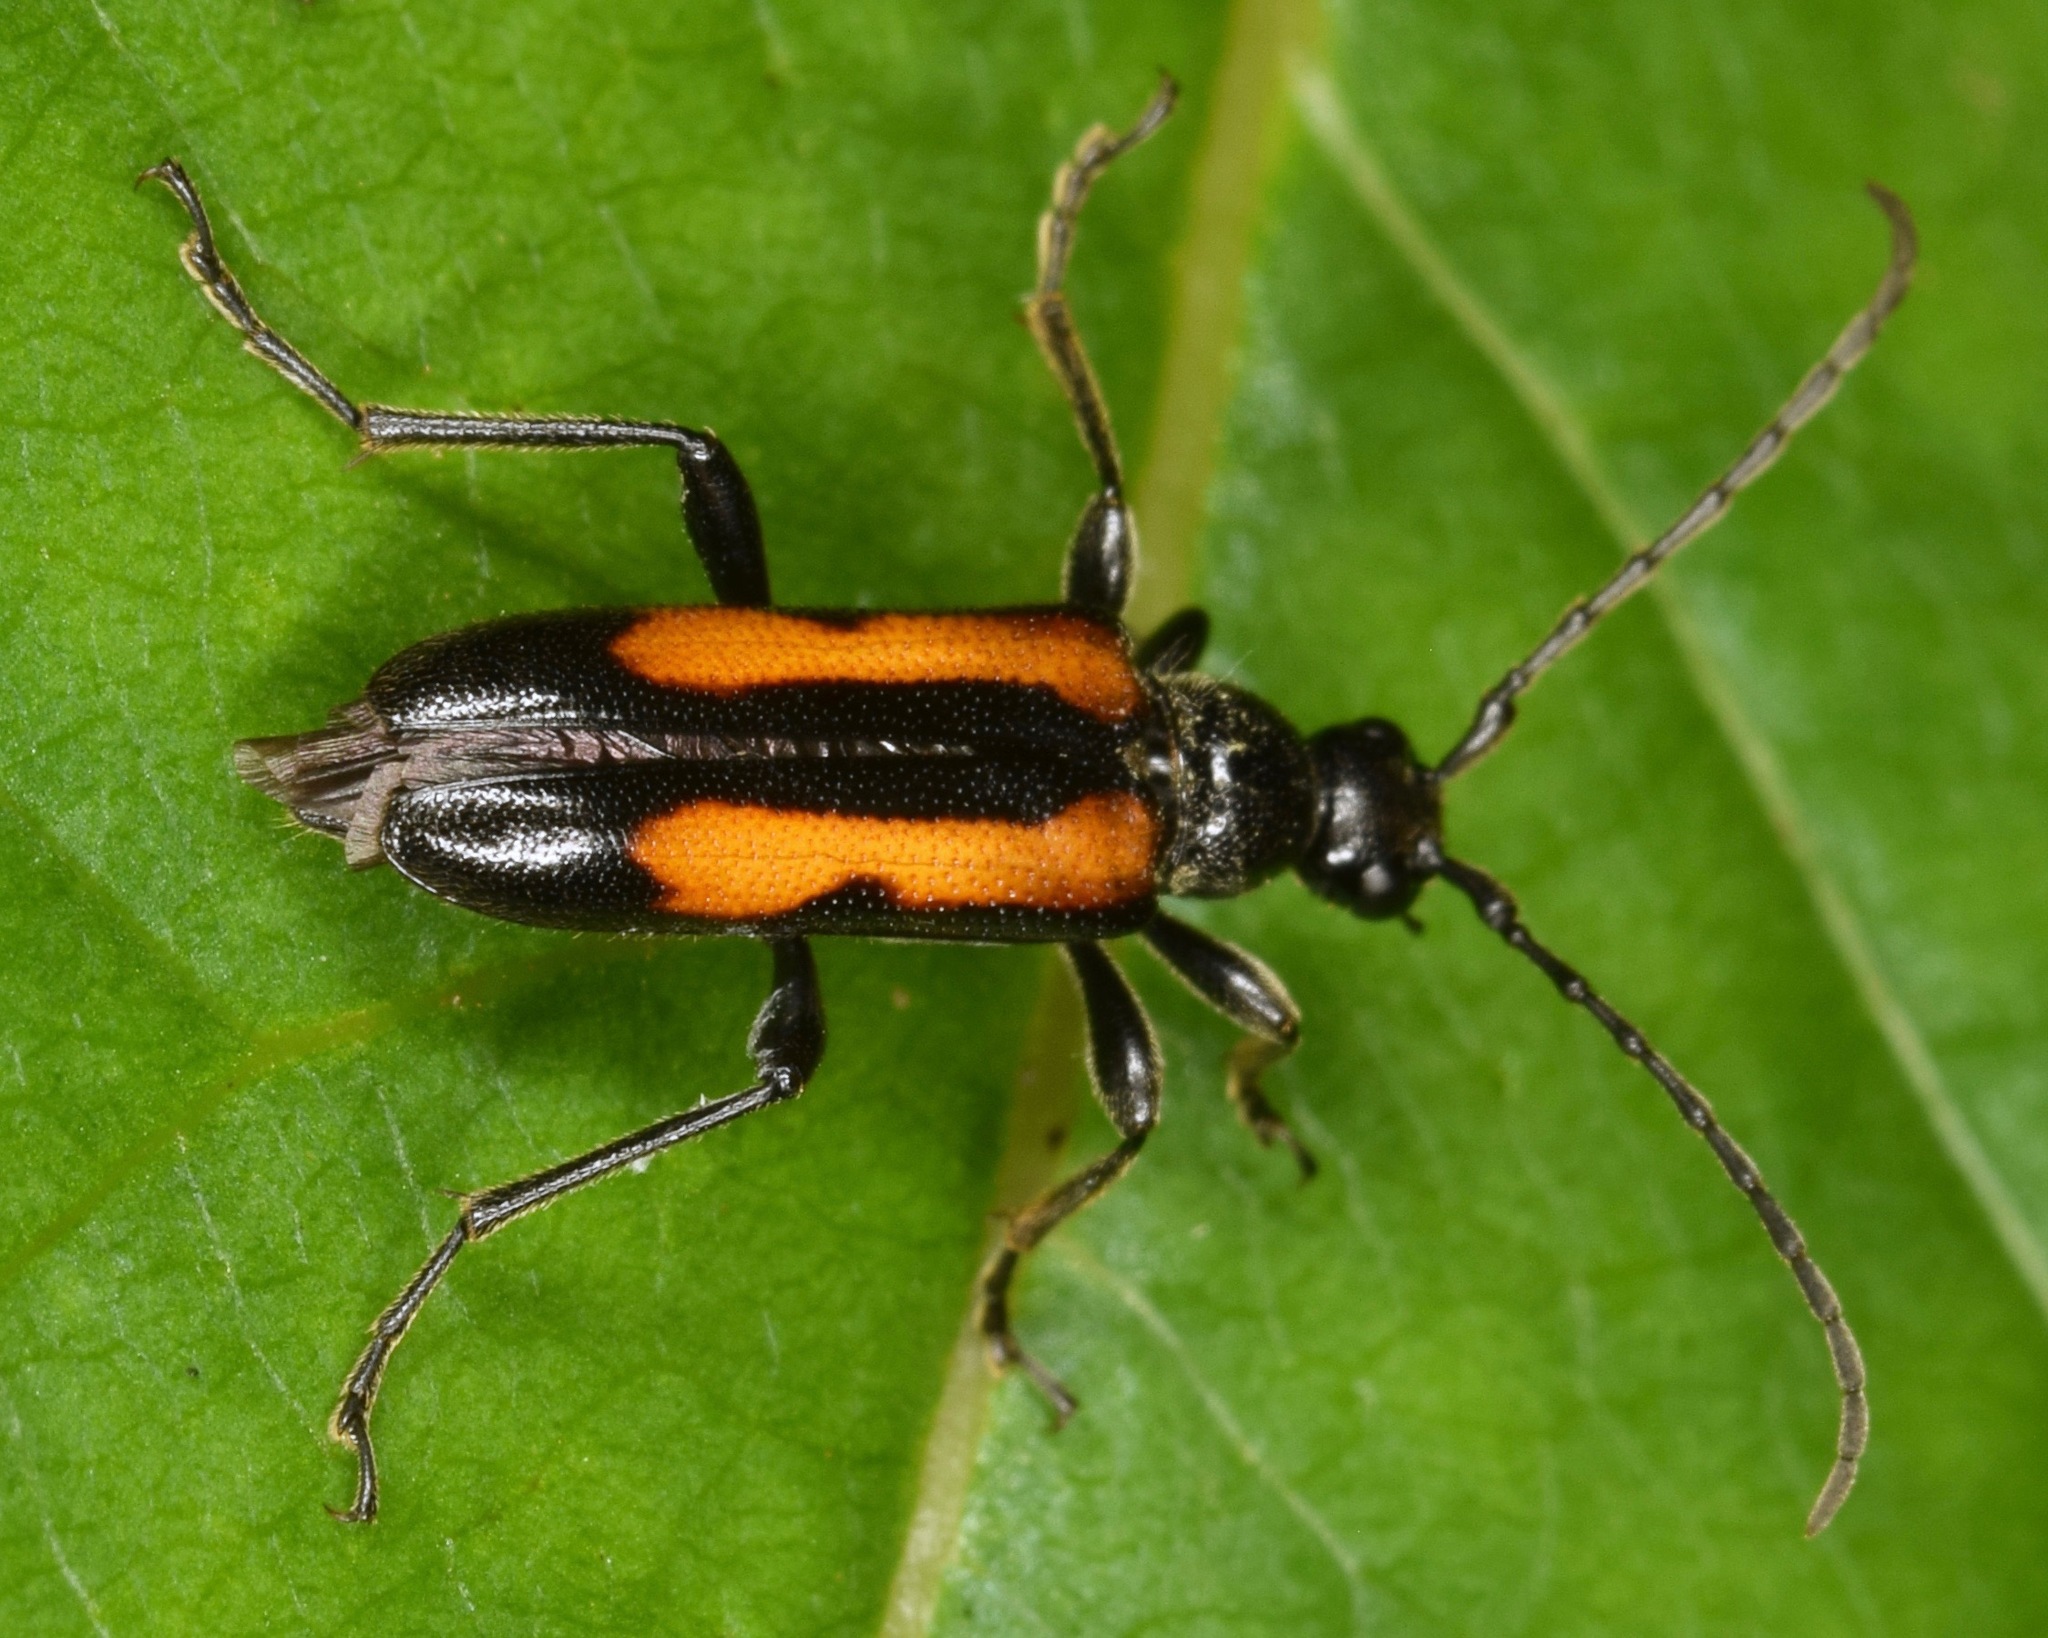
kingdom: Animalia
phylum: Arthropoda
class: Insecta
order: Coleoptera
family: Cerambycidae
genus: Strangalepta
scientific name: Strangalepta abbreviata
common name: Strangalepta flower longhorn beetle
